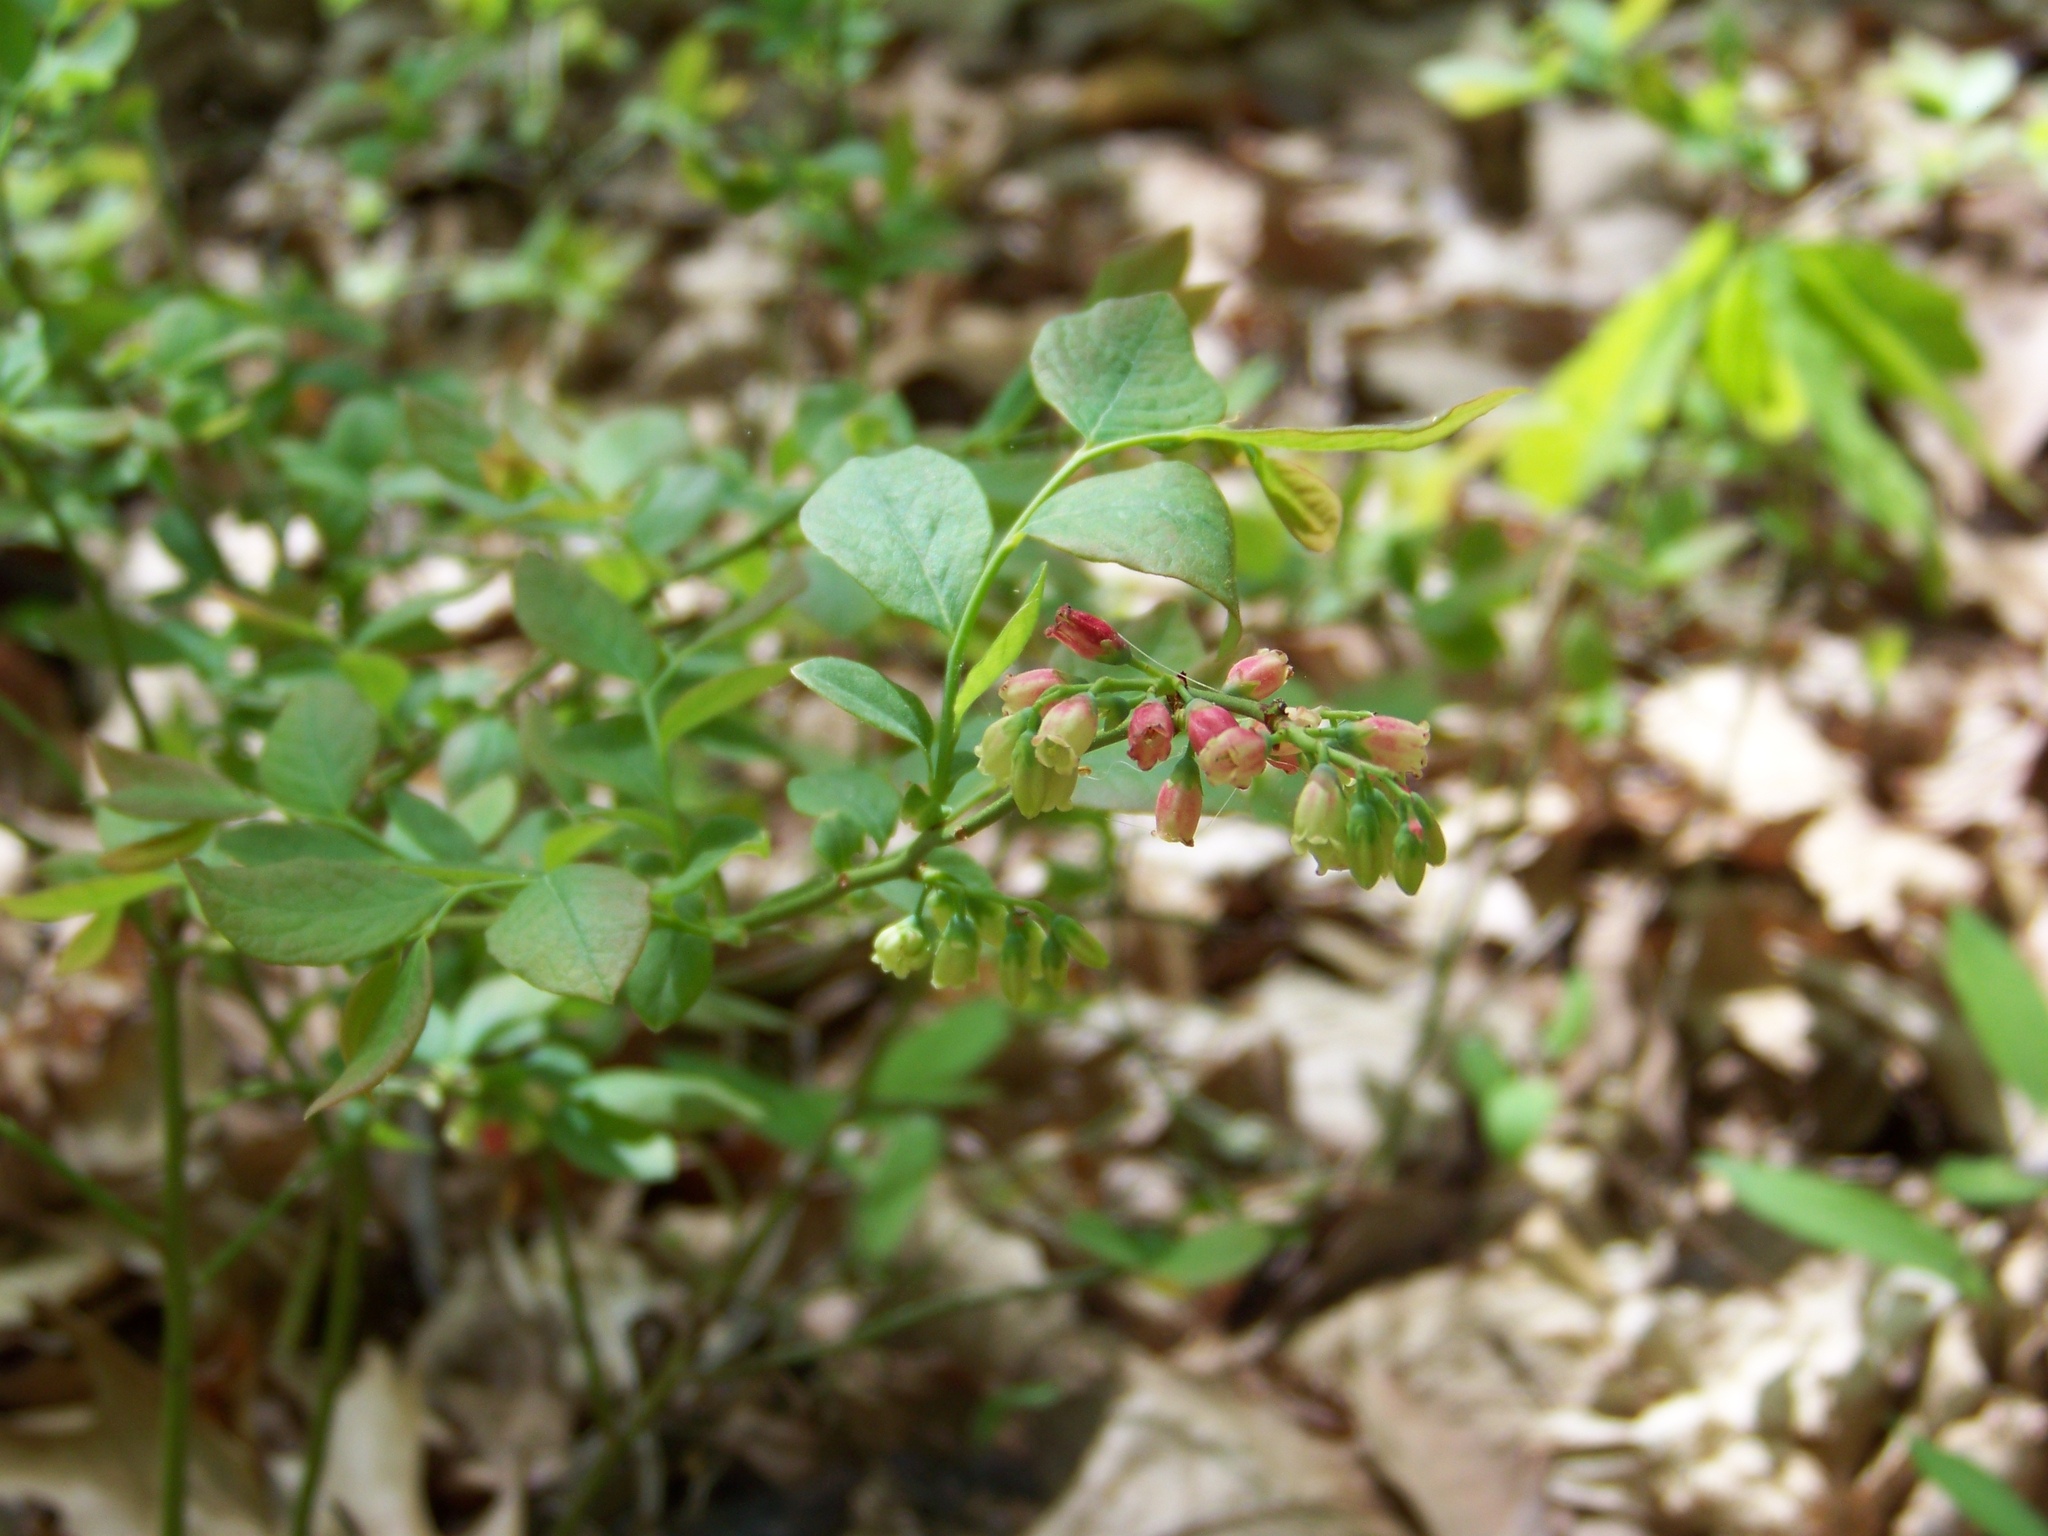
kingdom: Plantae
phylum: Tracheophyta
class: Magnoliopsida
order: Ericales
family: Ericaceae
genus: Vaccinium
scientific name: Vaccinium pallidum
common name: Blue ridge blueberry
